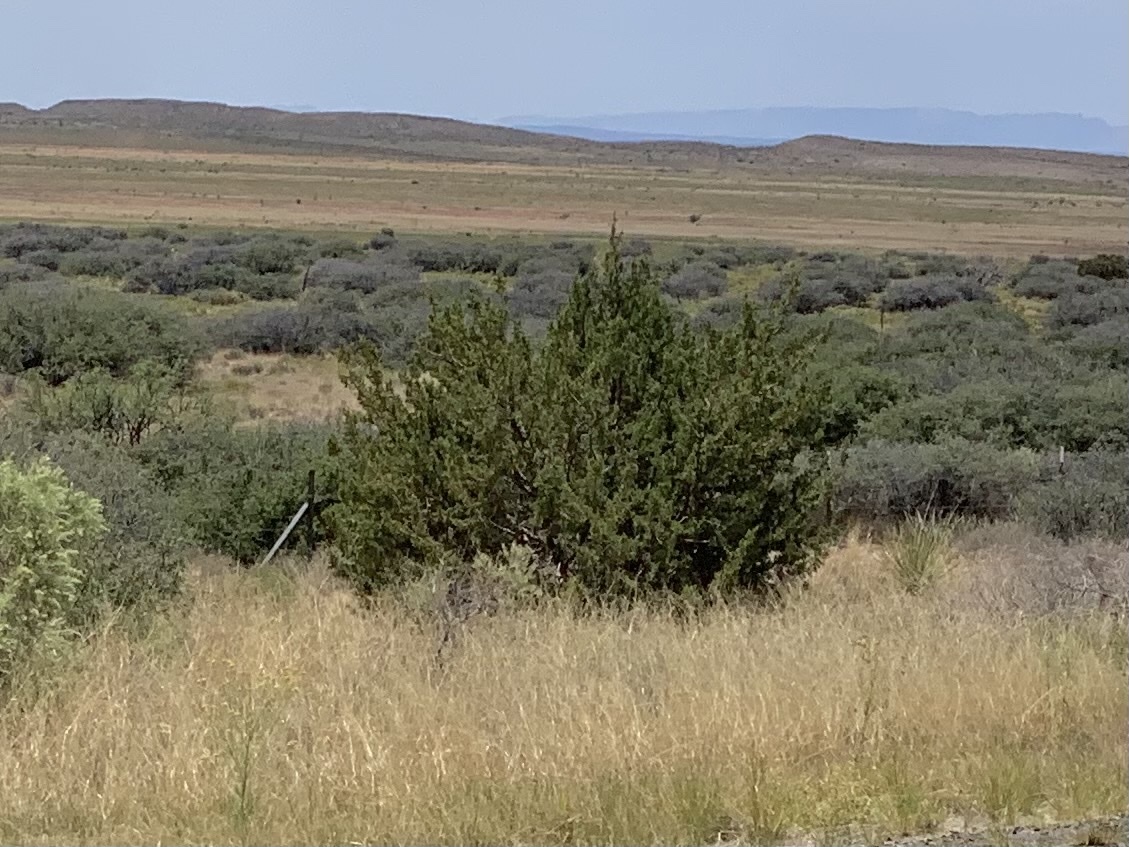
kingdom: Plantae
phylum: Tracheophyta
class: Magnoliopsida
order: Zygophyllales
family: Zygophyllaceae
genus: Larrea
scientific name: Larrea tridentata
